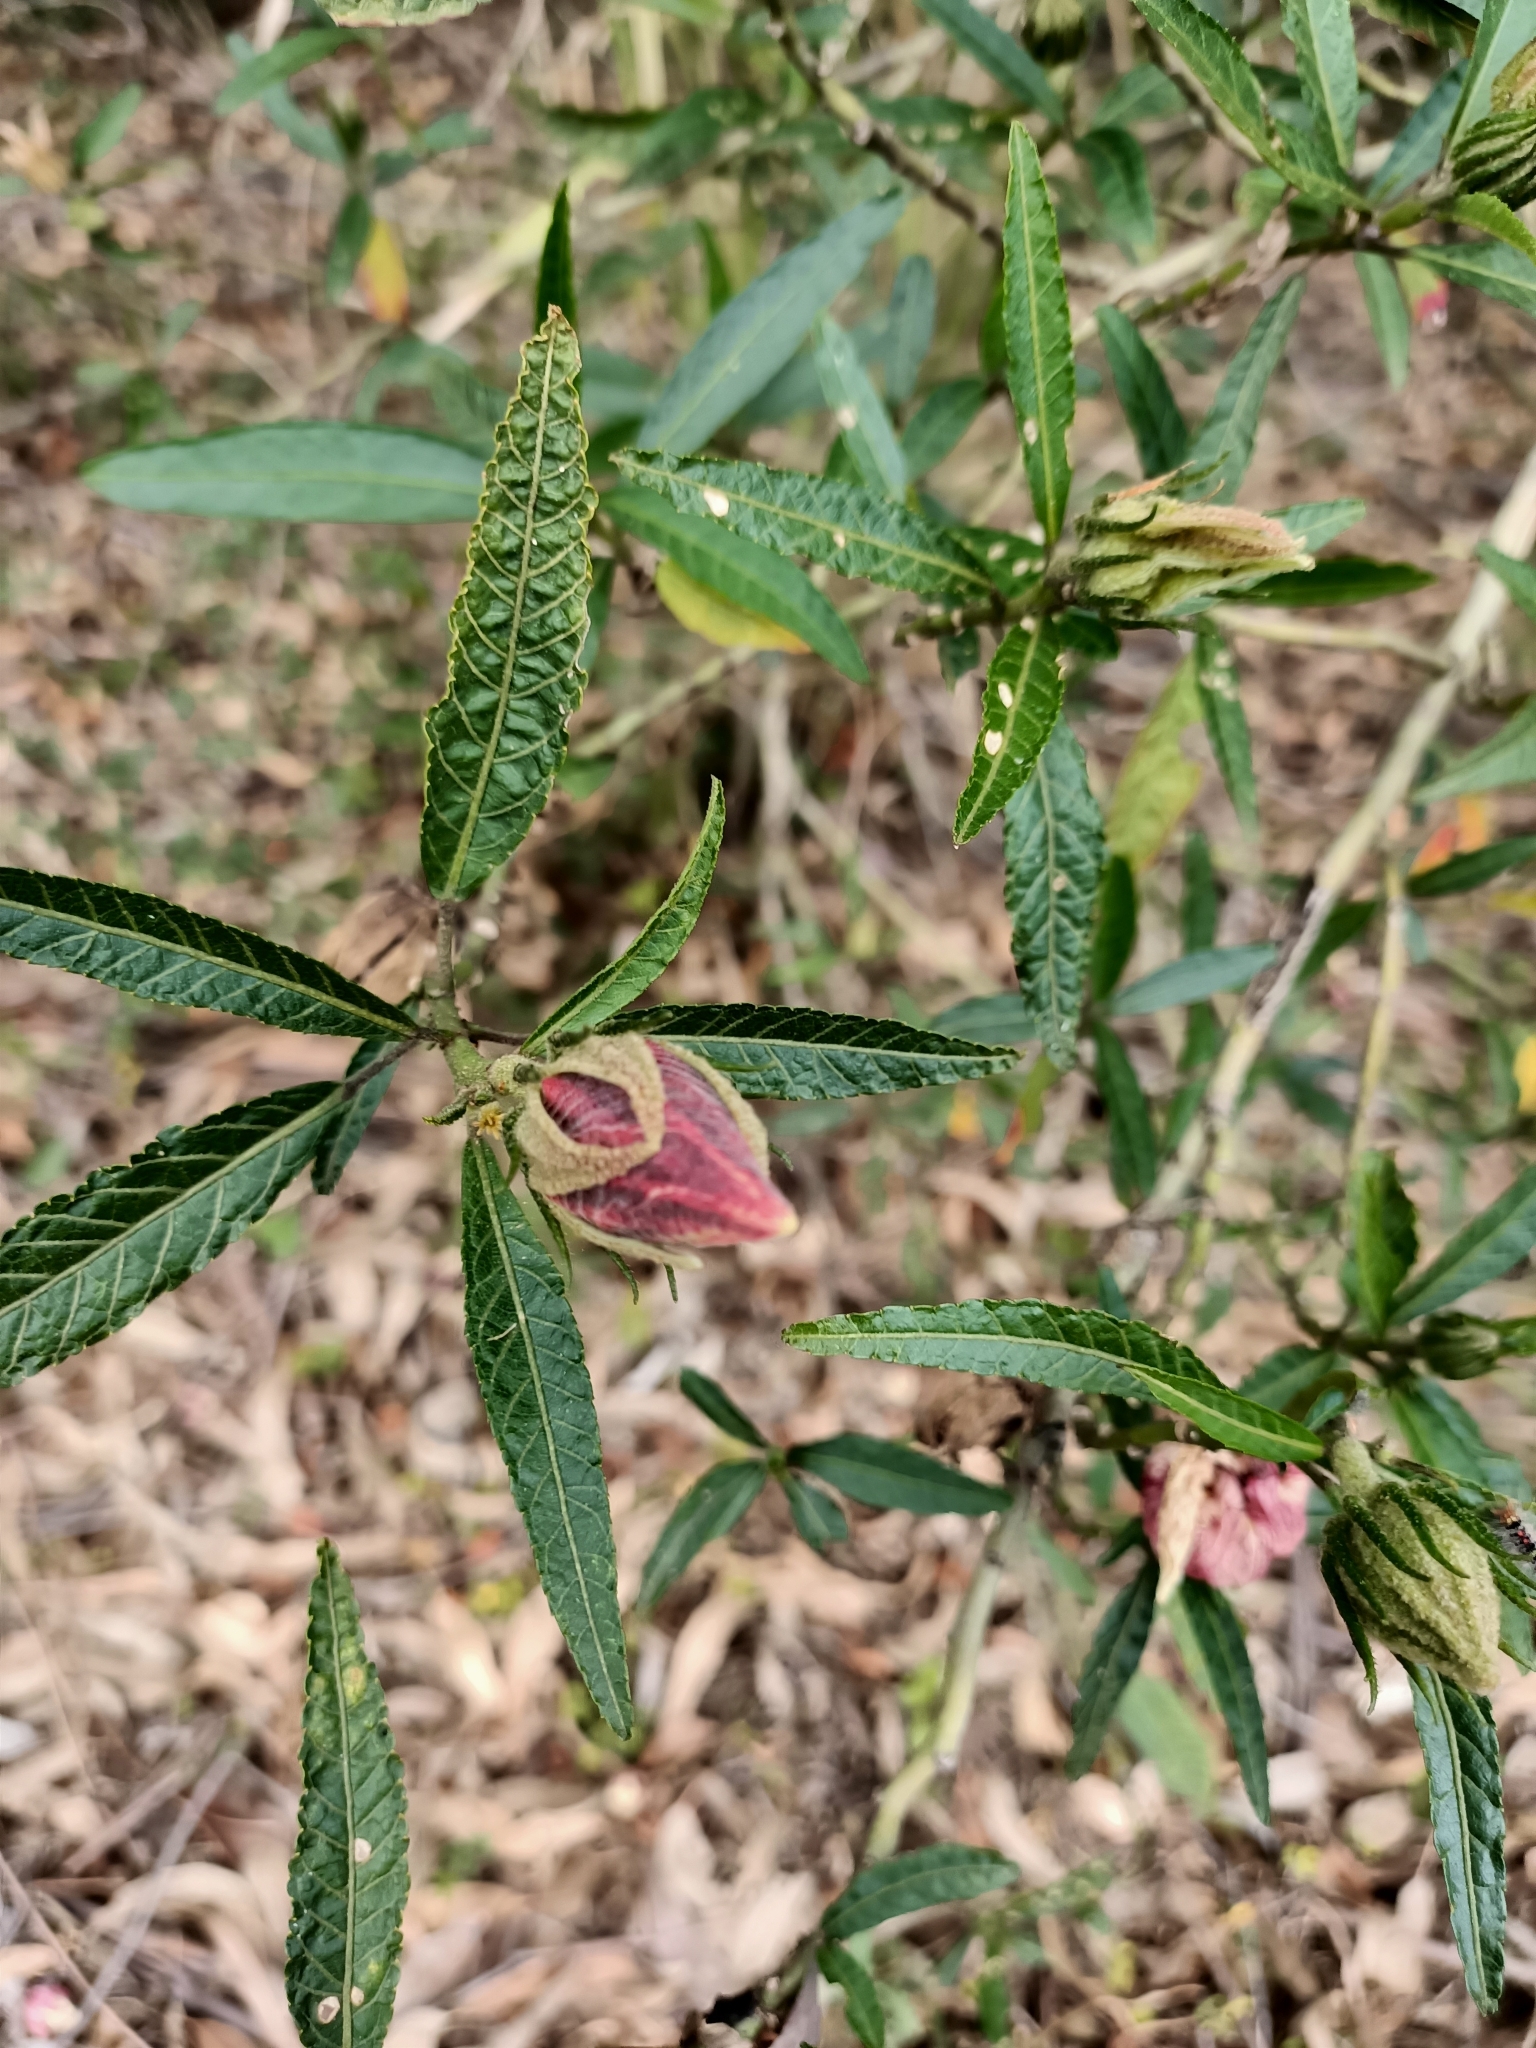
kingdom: Plantae
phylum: Tracheophyta
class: Magnoliopsida
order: Malvales
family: Malvaceae
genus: Hibiscus
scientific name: Hibiscus heterophyllus
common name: Queensland-sorrel
